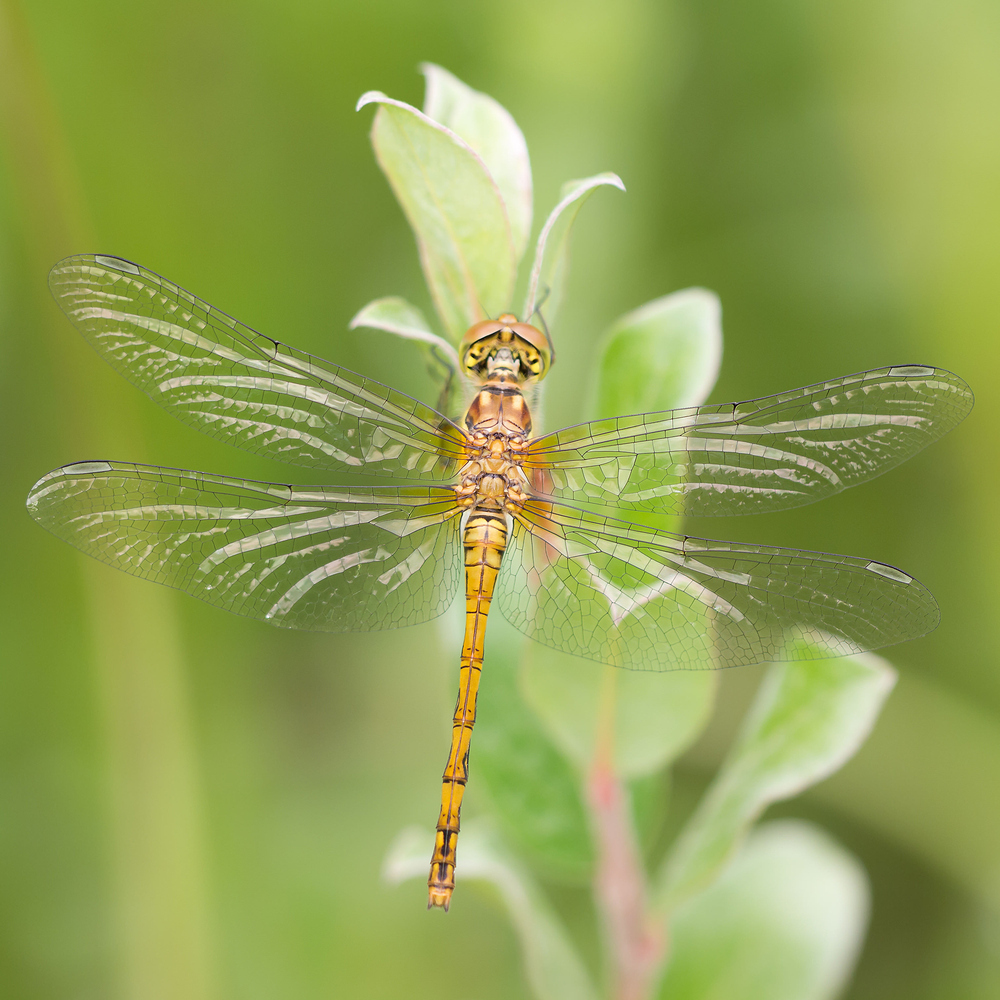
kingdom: Animalia
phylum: Arthropoda
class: Insecta
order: Odonata
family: Libellulidae
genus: Sympetrum
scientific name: Sympetrum striolatum
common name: Common darter
